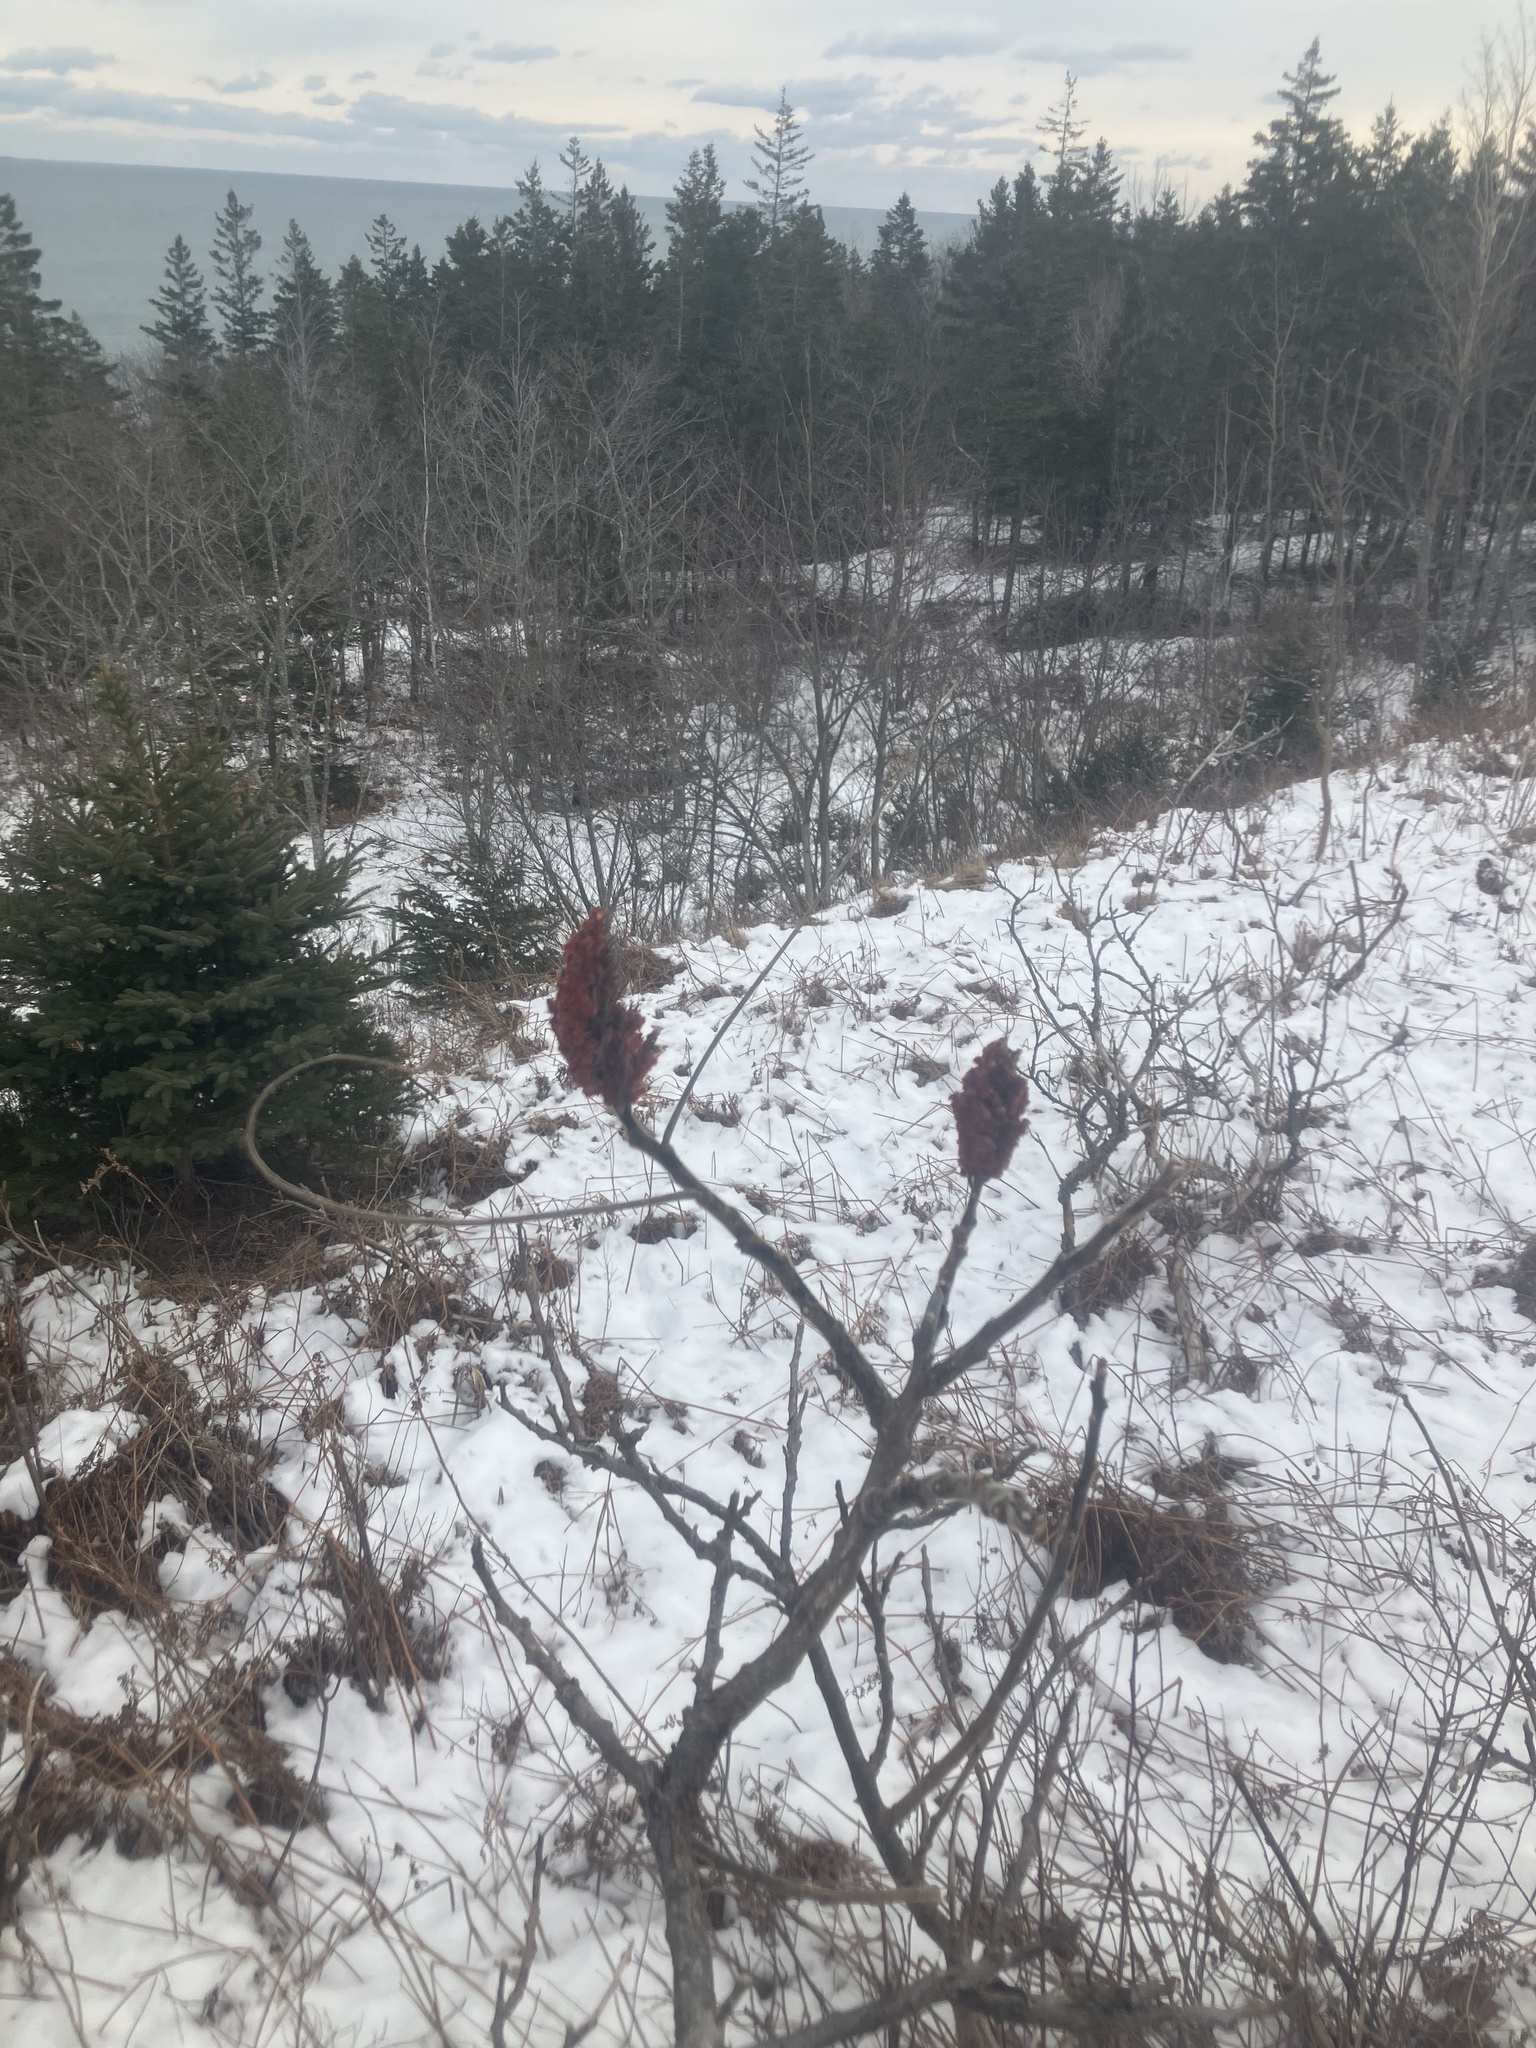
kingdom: Plantae
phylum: Tracheophyta
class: Magnoliopsida
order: Sapindales
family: Anacardiaceae
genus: Rhus
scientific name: Rhus typhina
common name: Staghorn sumac
